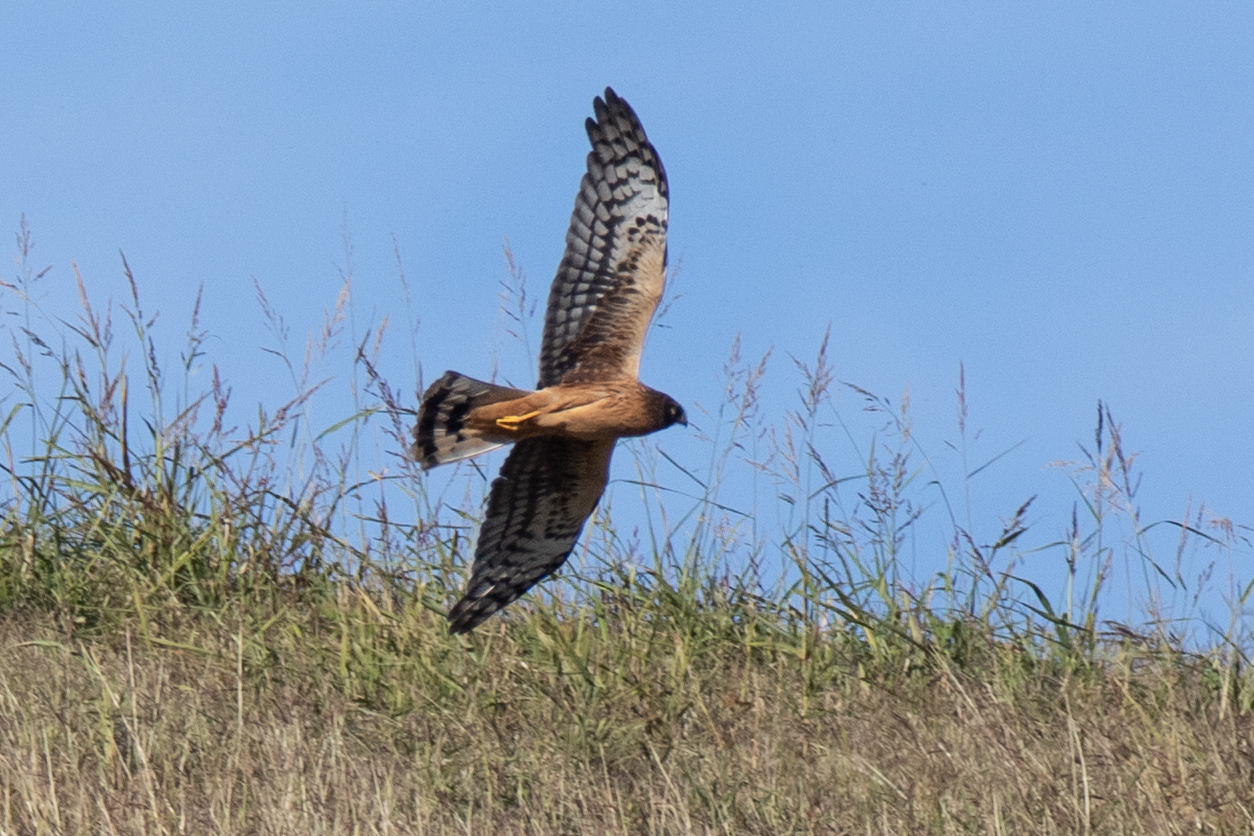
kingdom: Animalia
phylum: Chordata
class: Aves
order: Accipitriformes
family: Accipitridae
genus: Circus
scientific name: Circus cyaneus
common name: Hen harrier
